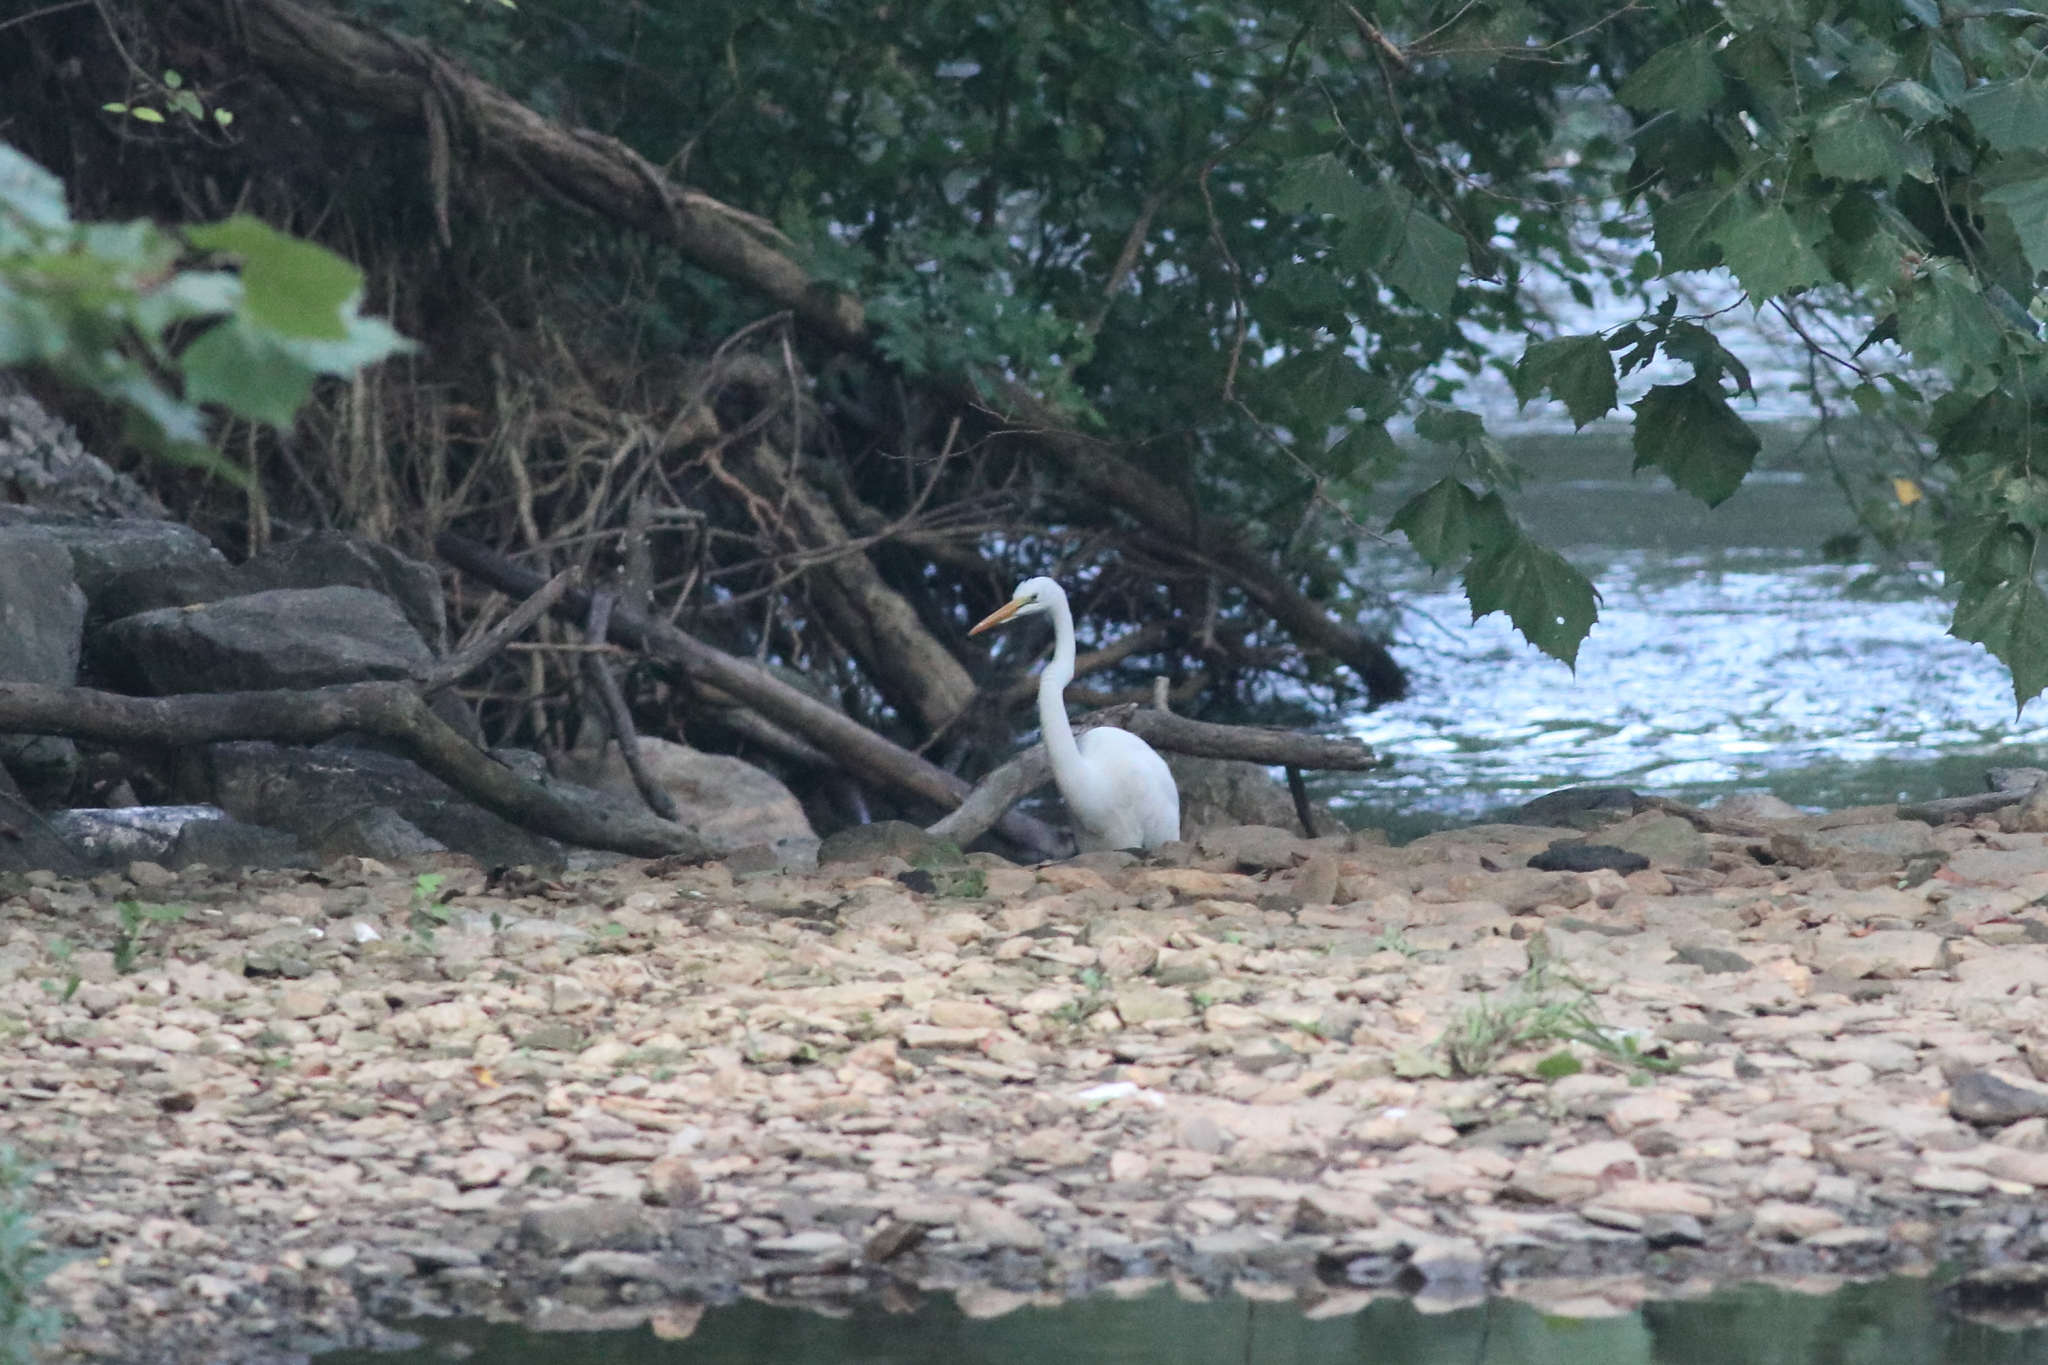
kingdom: Animalia
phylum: Chordata
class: Aves
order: Pelecaniformes
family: Ardeidae
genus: Ardea
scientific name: Ardea alba
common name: Great egret
